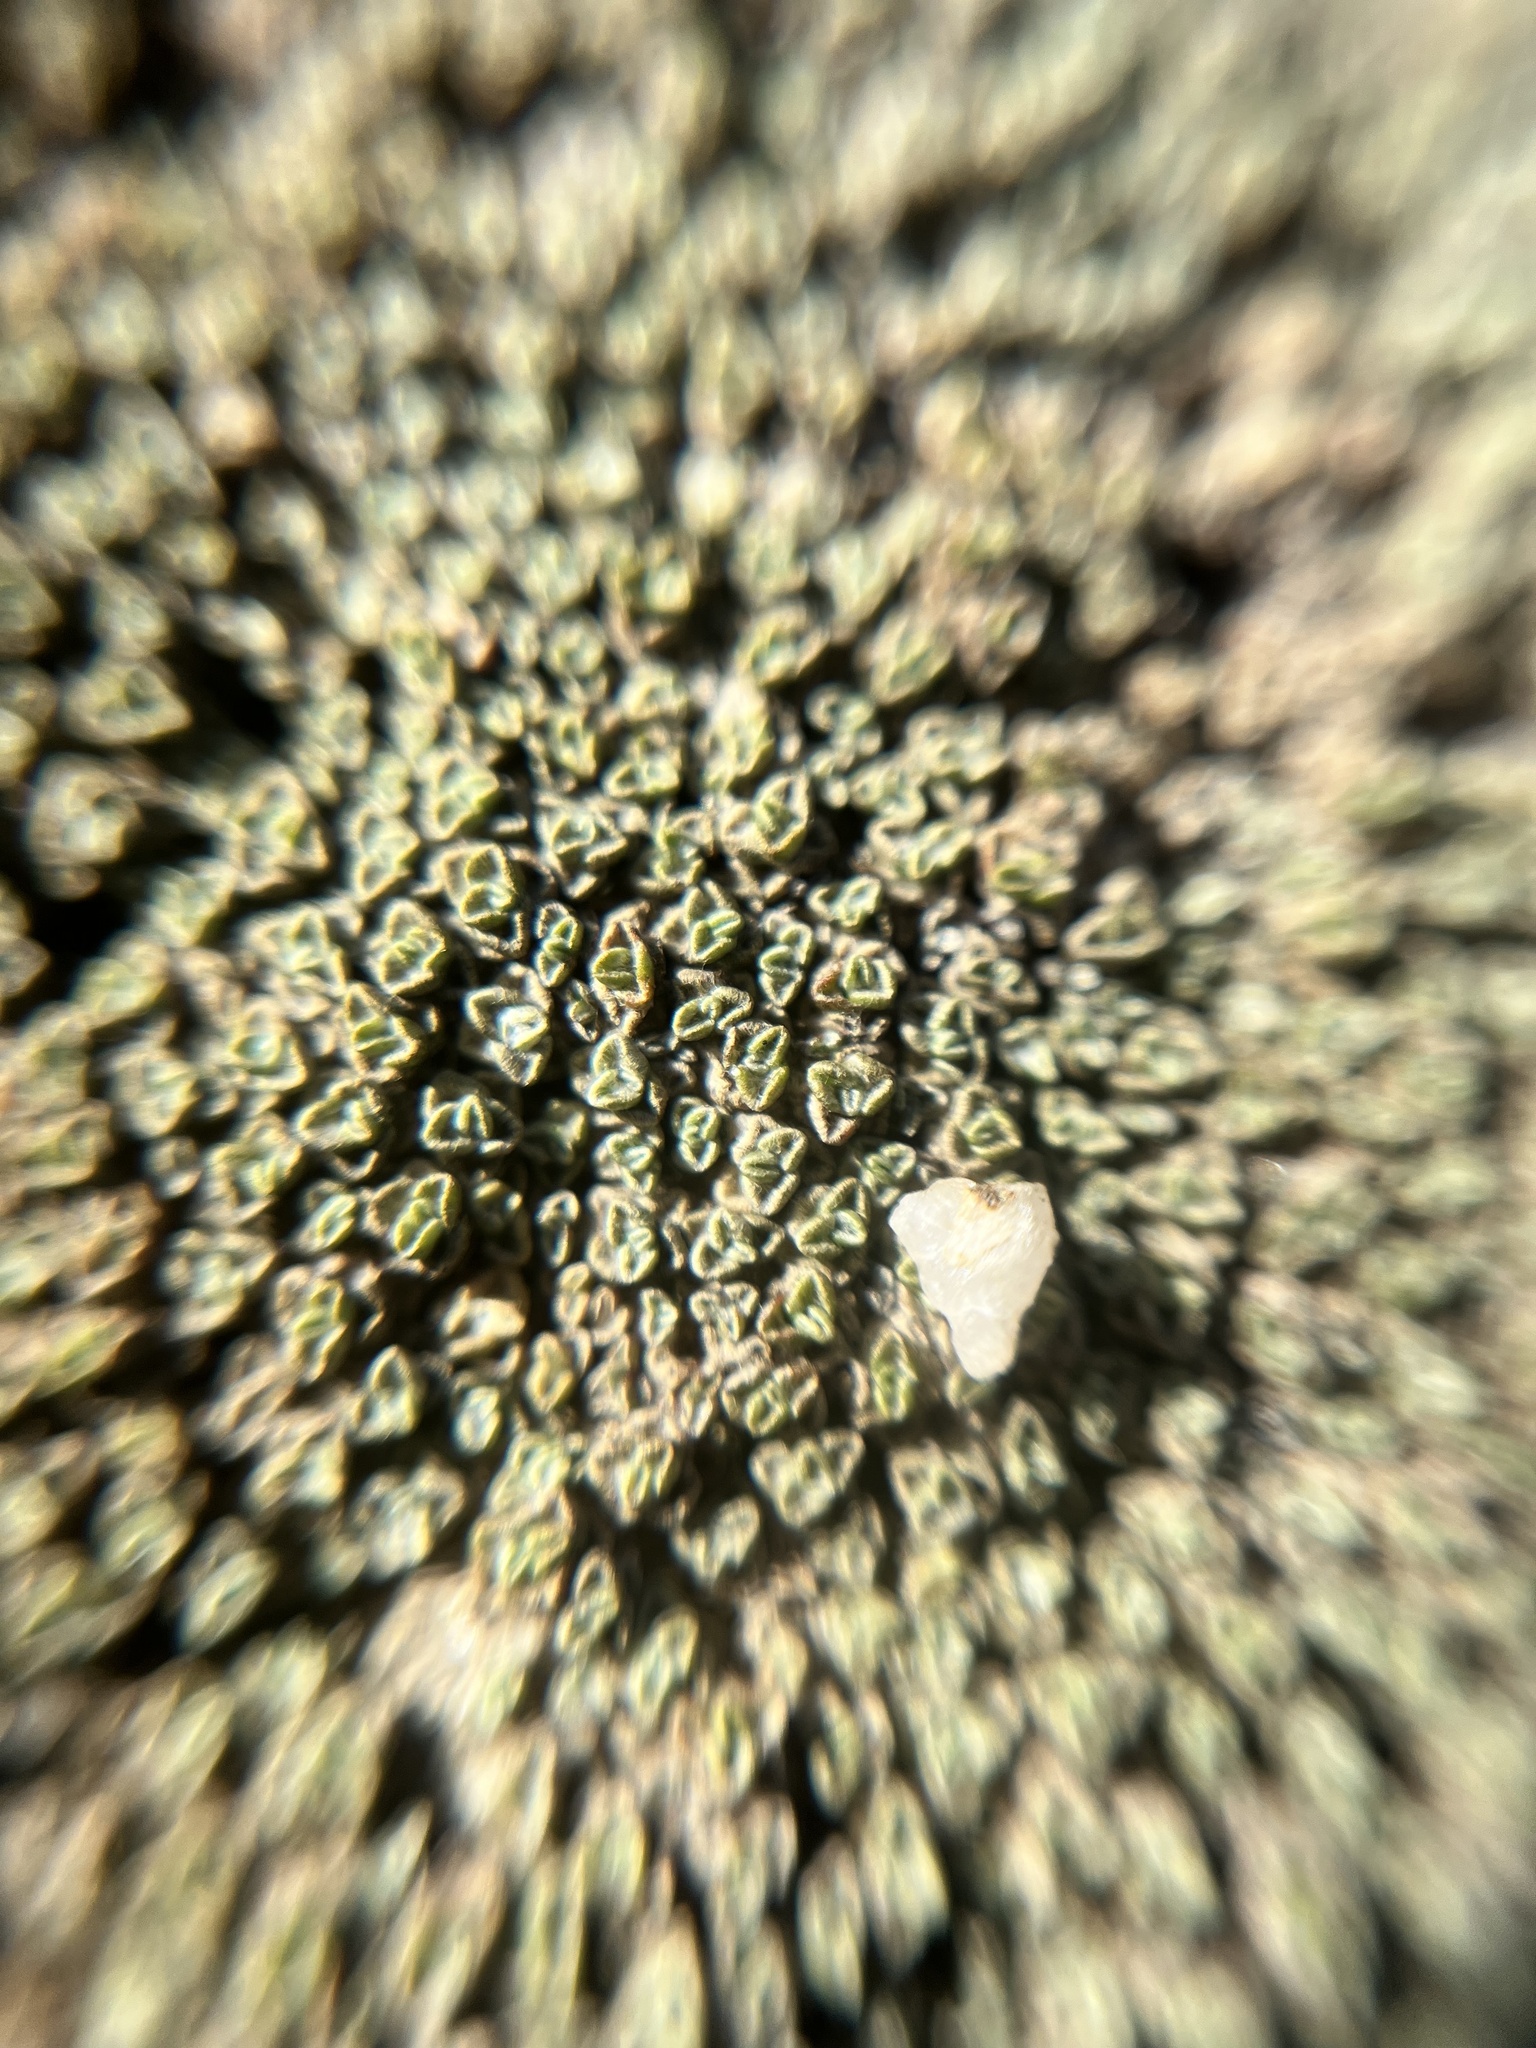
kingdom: Plantae
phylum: Tracheophyta
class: Magnoliopsida
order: Asterales
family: Asteraceae
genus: Raoulia
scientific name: Raoulia australis
